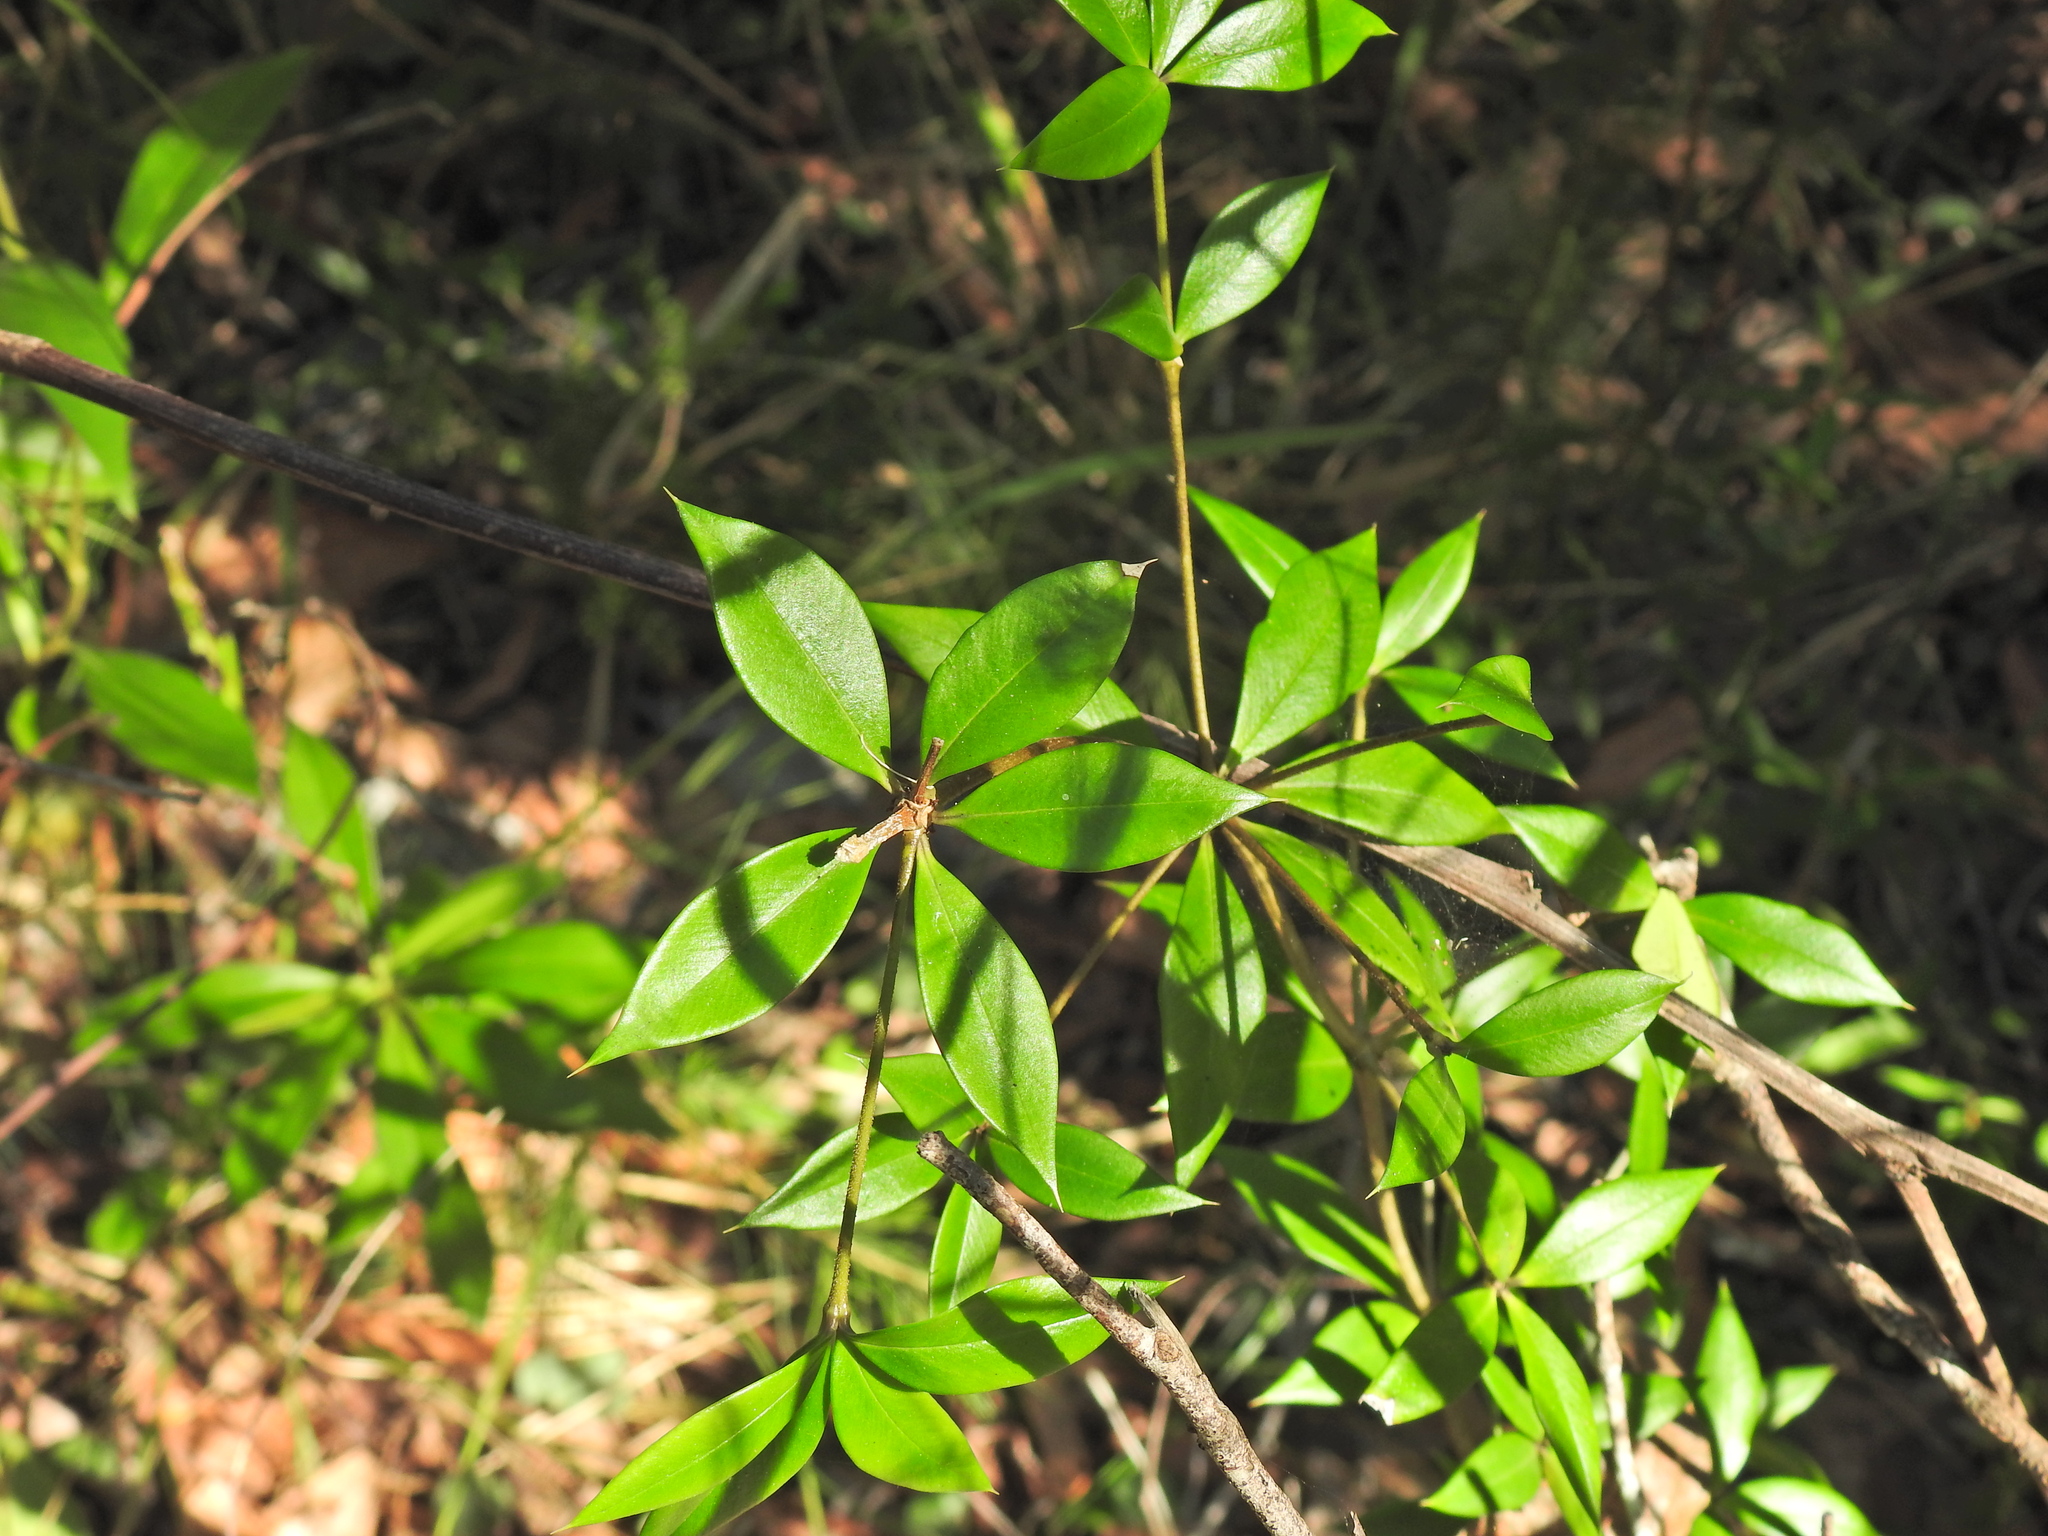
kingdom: Plantae
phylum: Tracheophyta
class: Magnoliopsida
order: Gentianales
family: Apocynaceae
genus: Alyxia
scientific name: Alyxia ruscifolia
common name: Chainfruit
